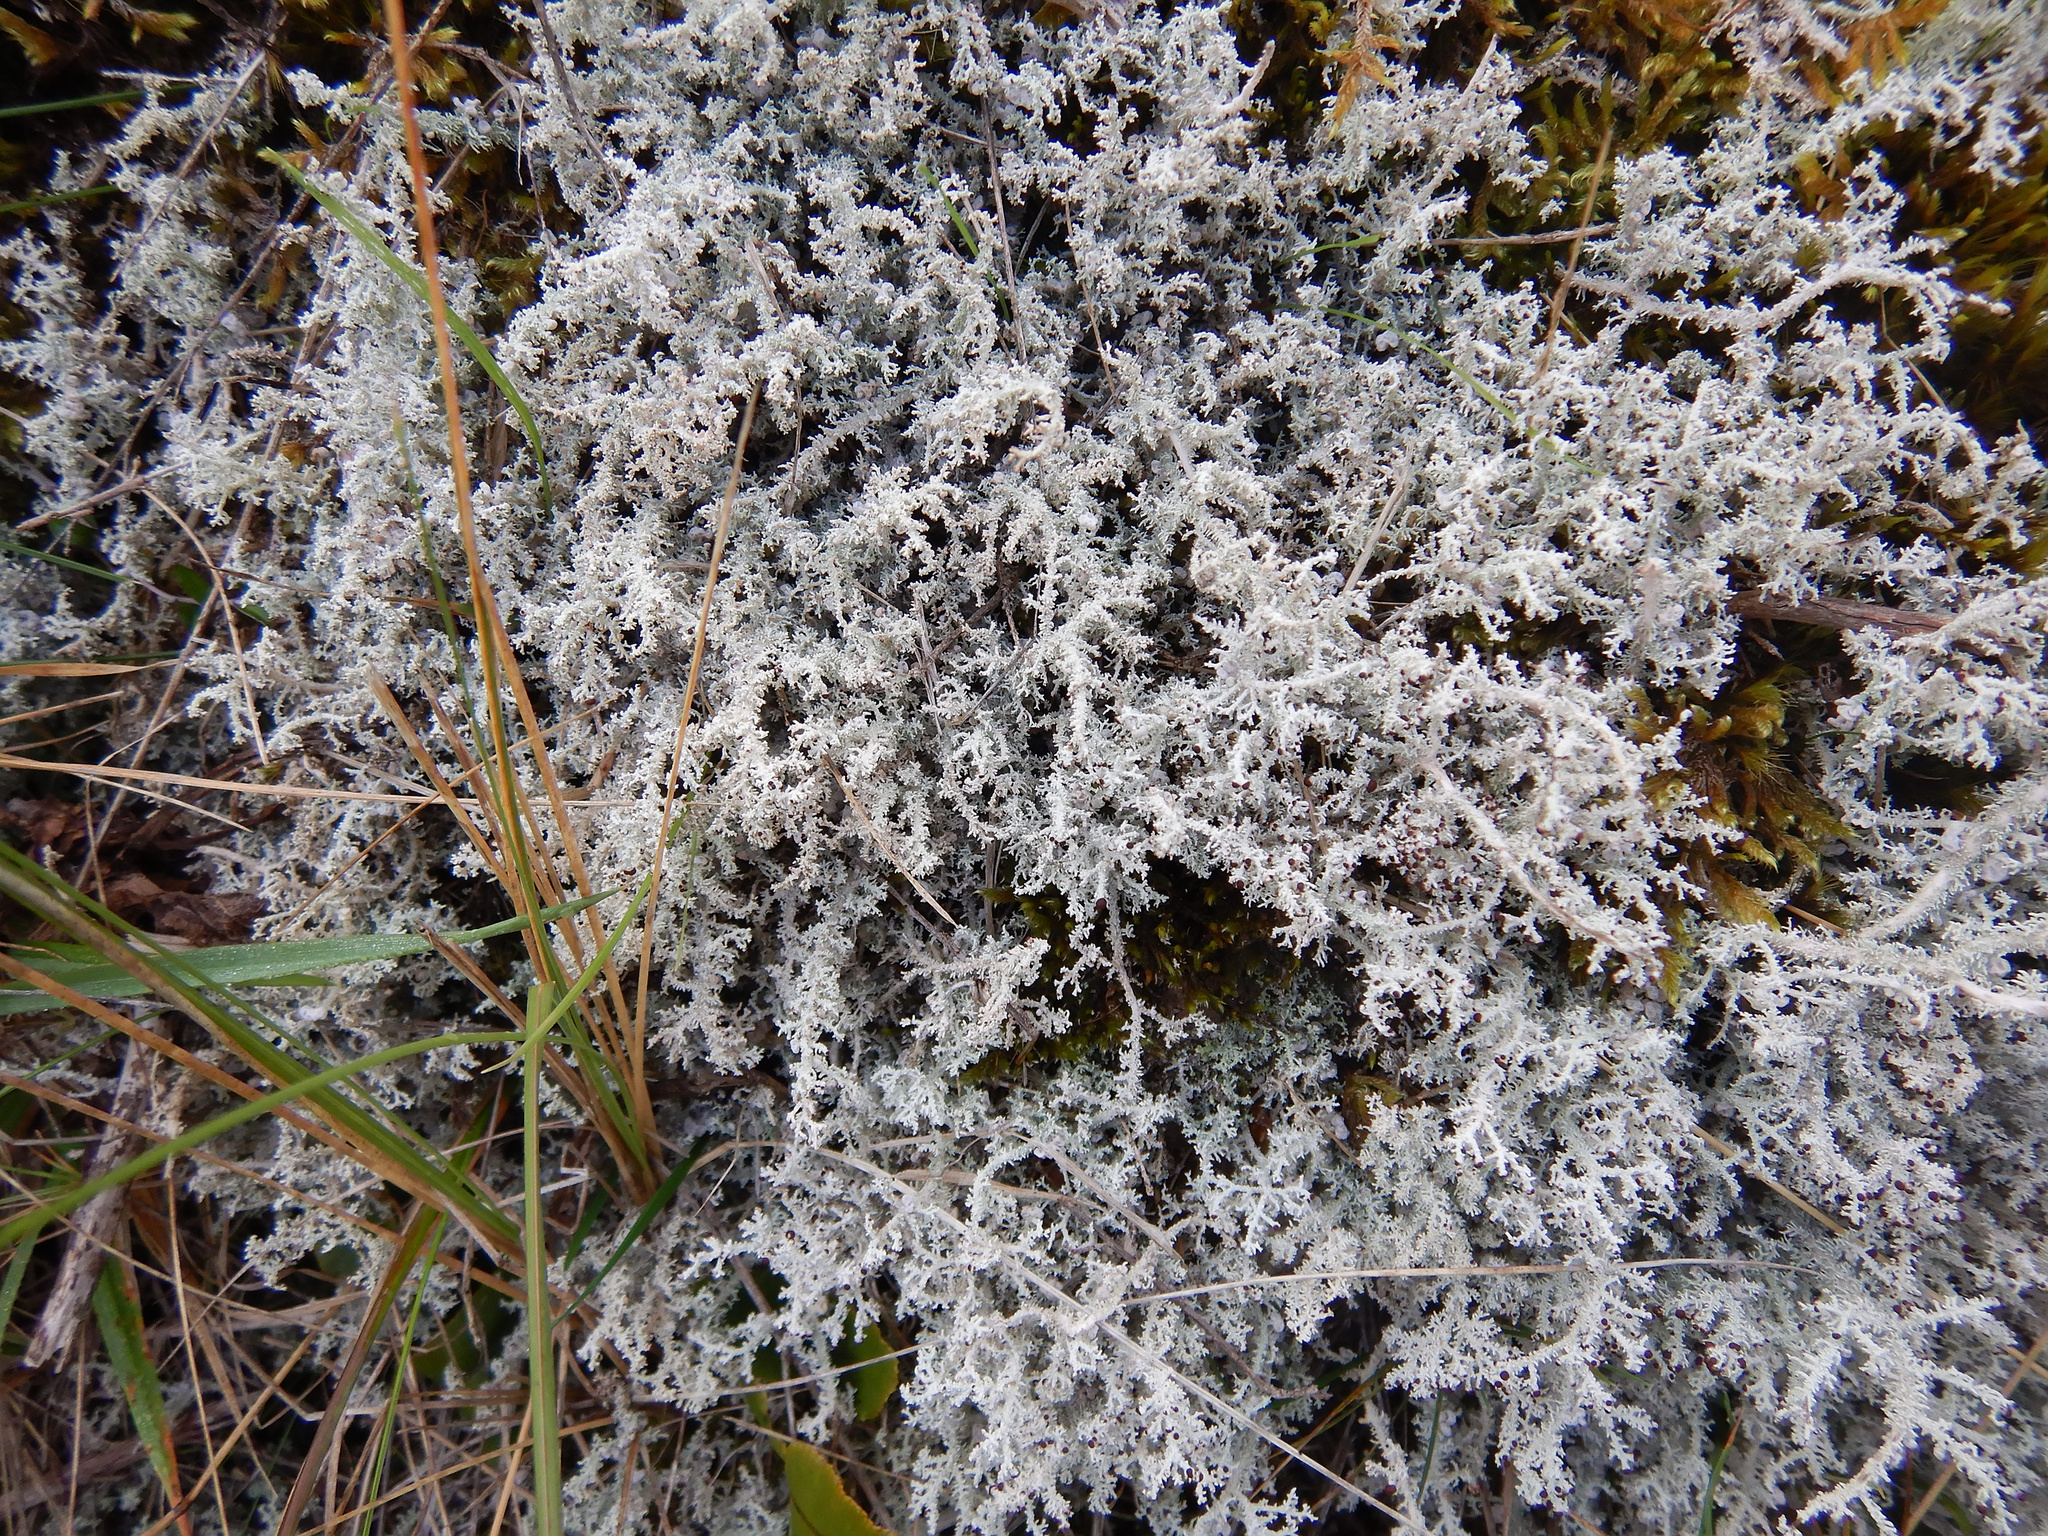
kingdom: Fungi
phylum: Ascomycota
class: Lecanoromycetes
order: Lecanorales
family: Stereocaulaceae
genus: Stereocaulon
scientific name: Stereocaulon ramulosum
